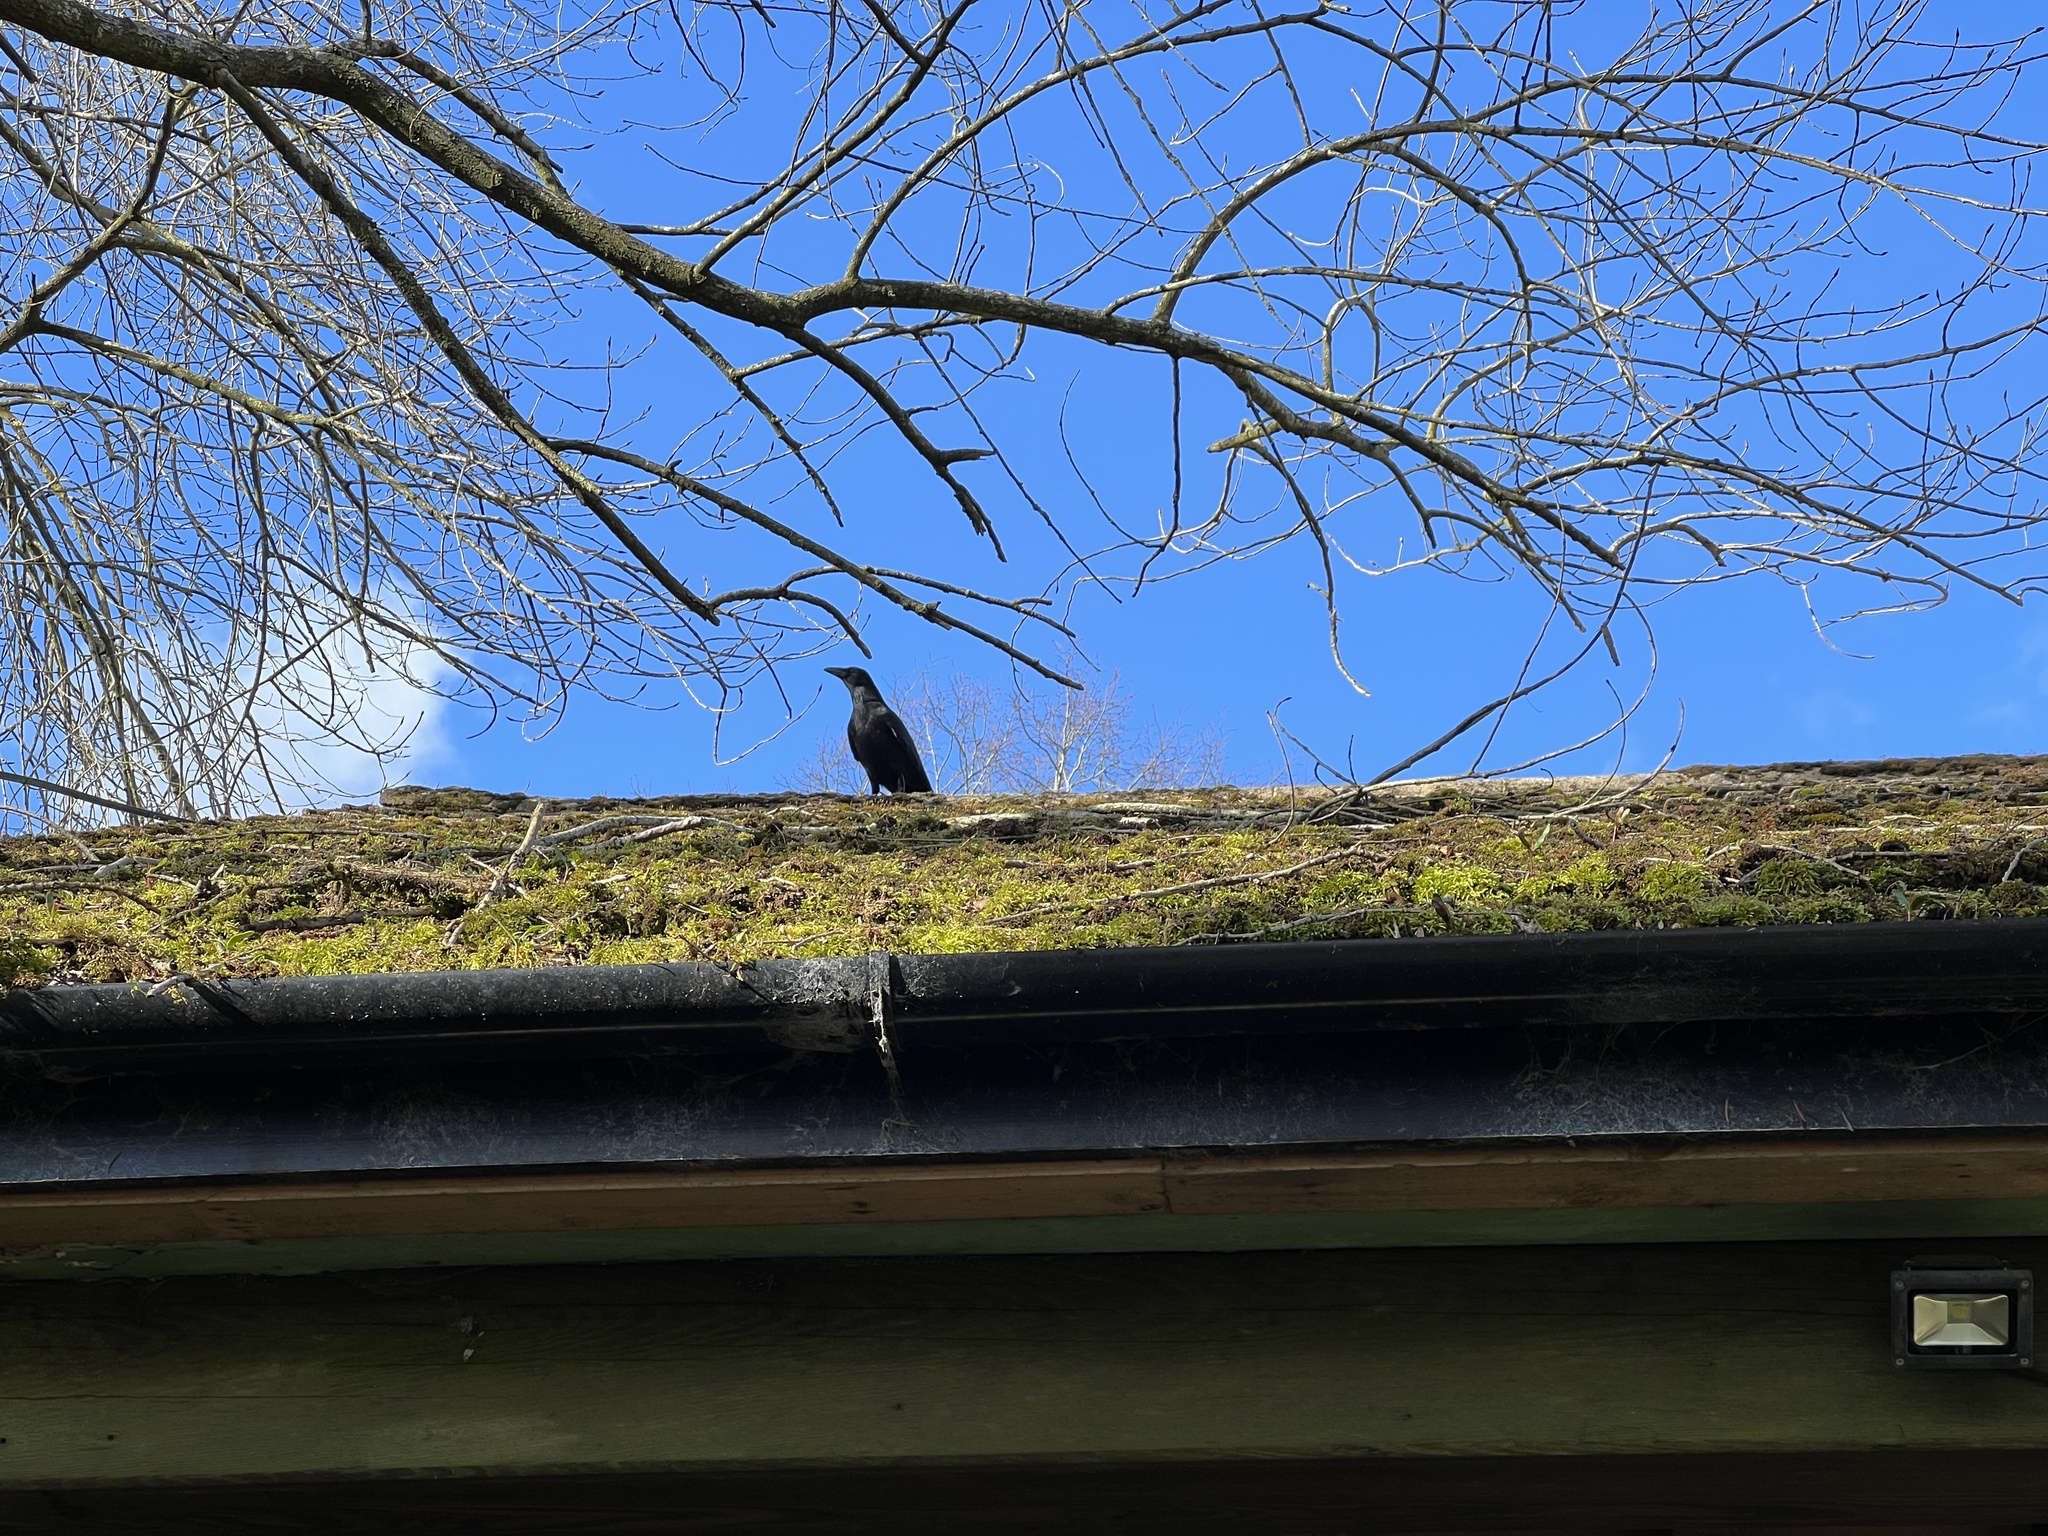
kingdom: Animalia
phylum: Chordata
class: Aves
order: Passeriformes
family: Corvidae
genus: Corvus
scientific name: Corvus corone
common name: Carrion crow
